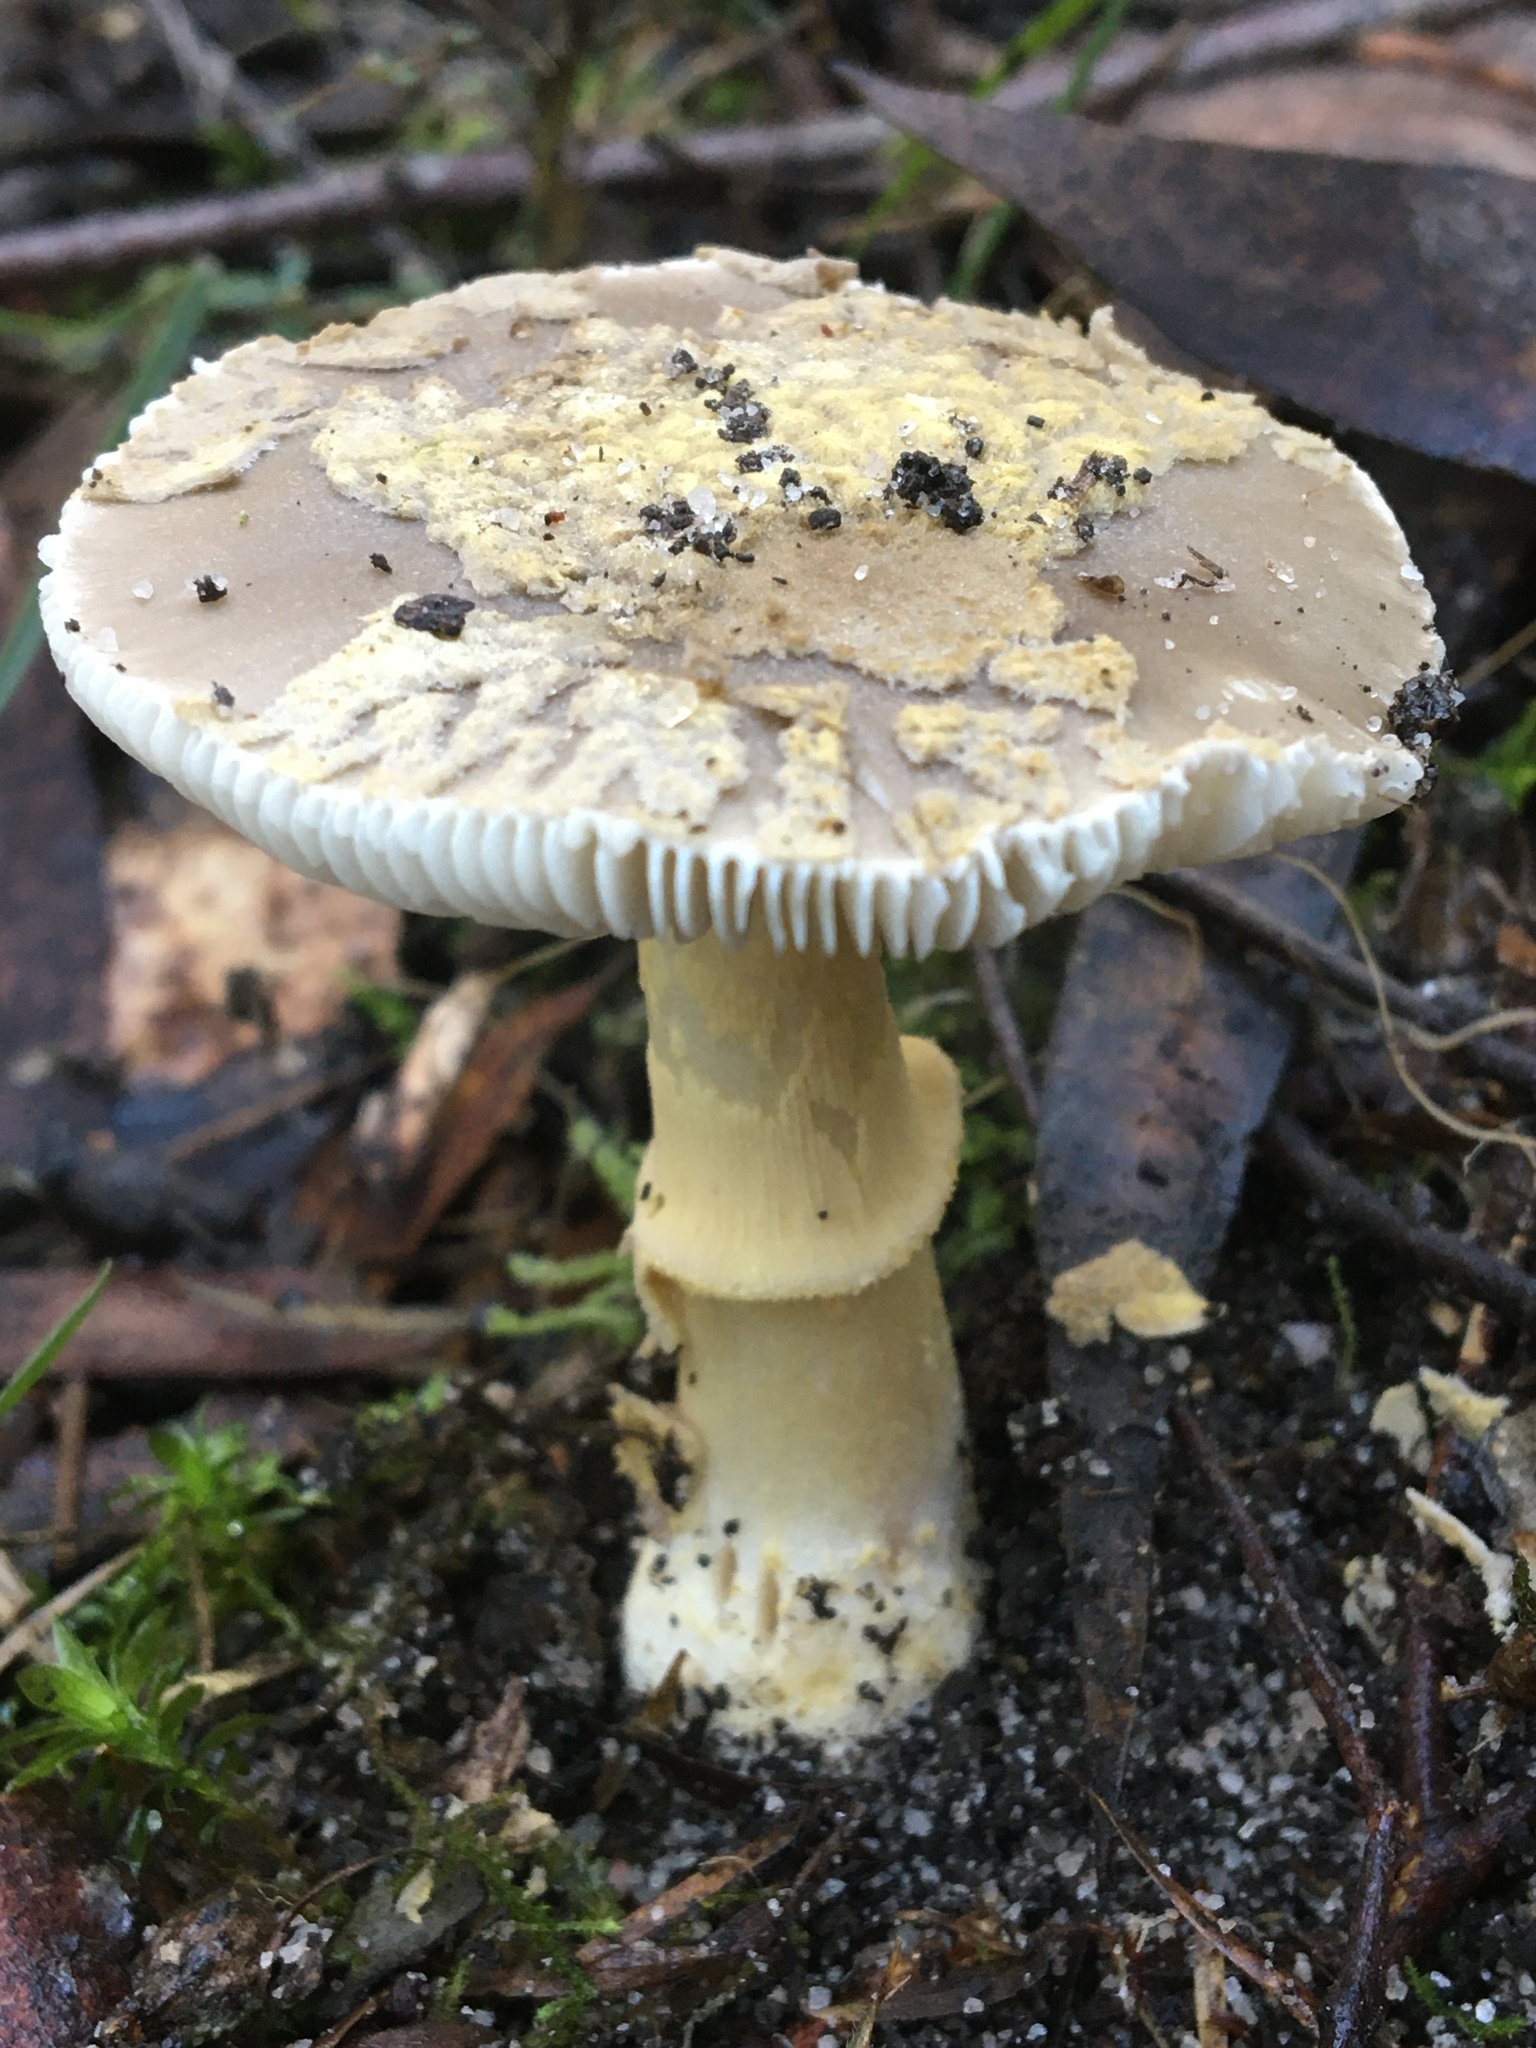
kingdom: Fungi
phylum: Basidiomycota
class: Agaricomycetes
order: Agaricales
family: Amanitaceae
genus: Amanita
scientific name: Amanita luteolovelata
